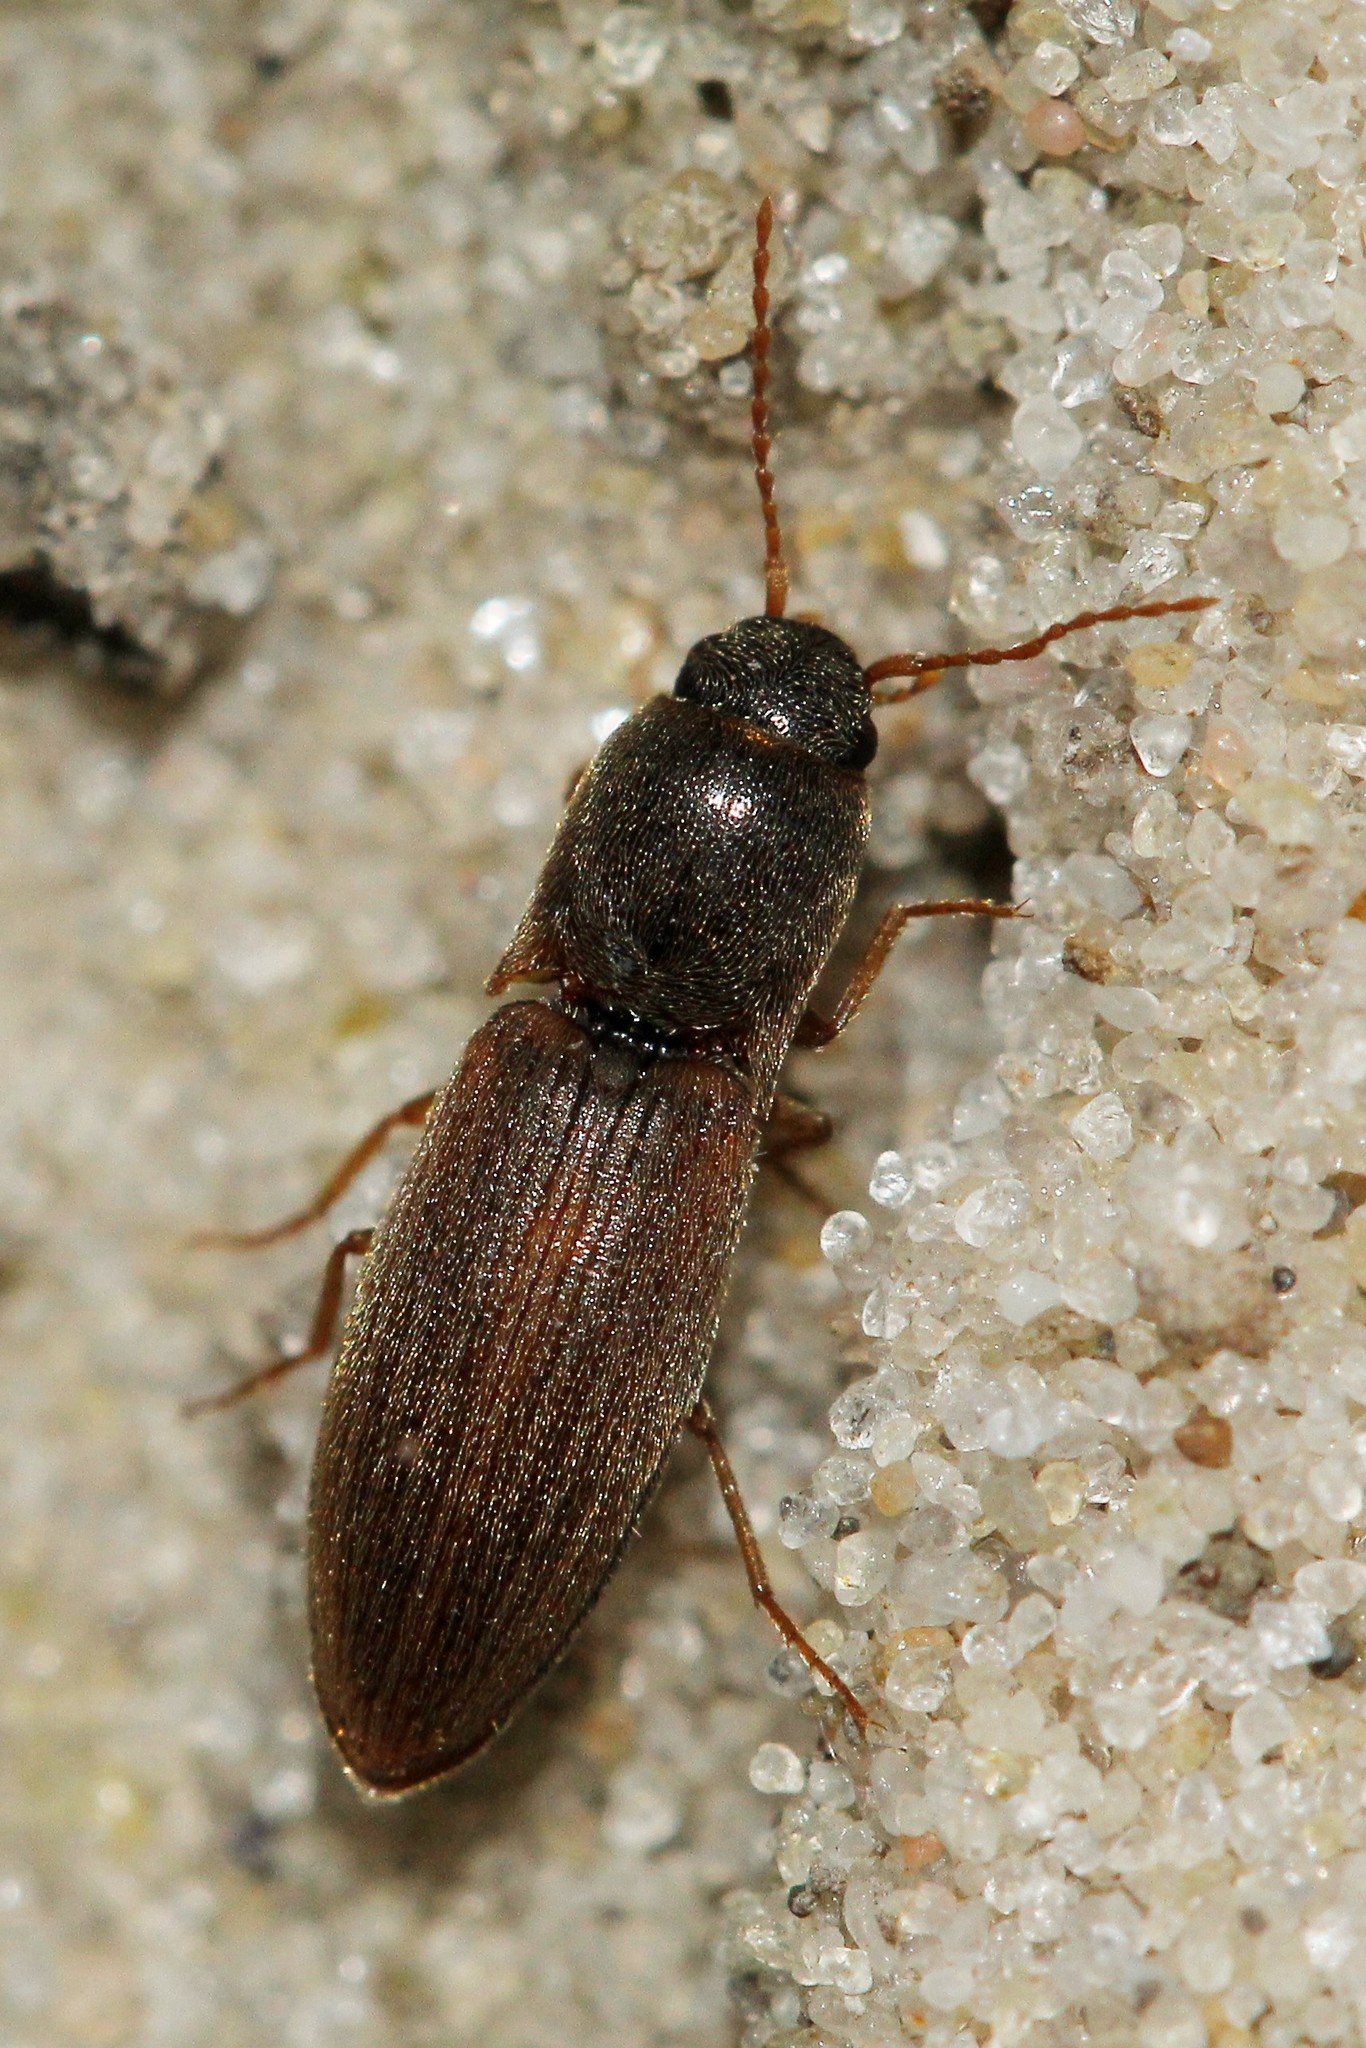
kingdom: Animalia
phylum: Arthropoda
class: Insecta
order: Coleoptera
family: Elateridae
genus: Agriotes
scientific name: Agriotes sputator
